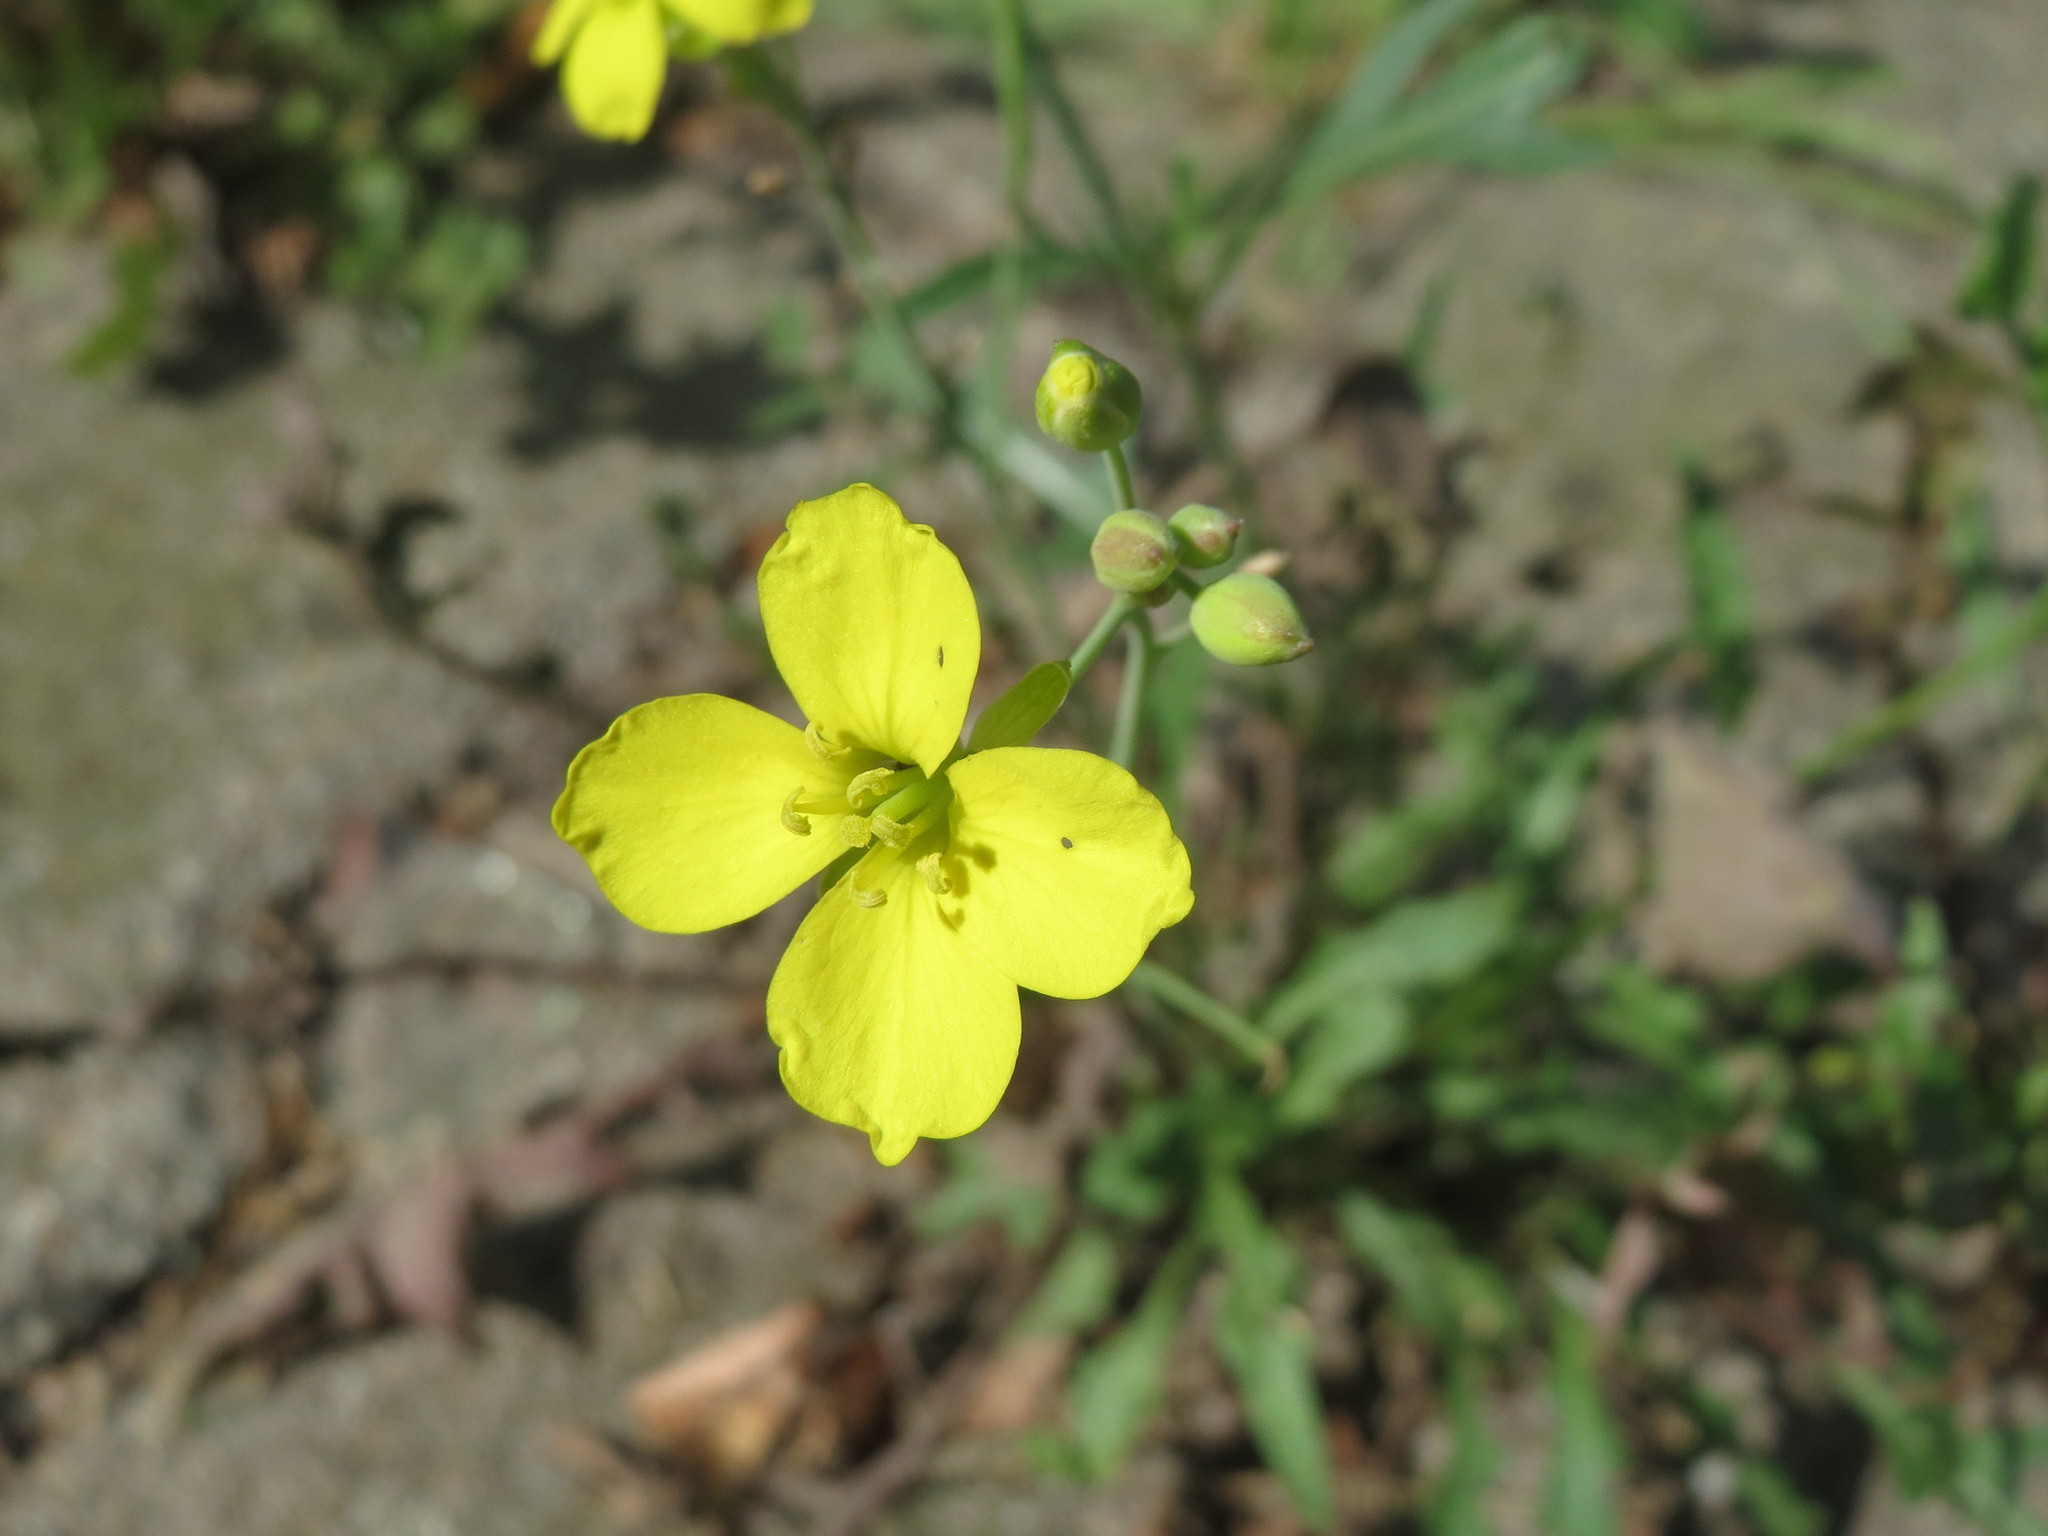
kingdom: Plantae
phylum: Tracheophyta
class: Magnoliopsida
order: Brassicales
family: Brassicaceae
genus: Diplotaxis
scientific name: Diplotaxis tenuifolia
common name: Perennial wall-rocket
